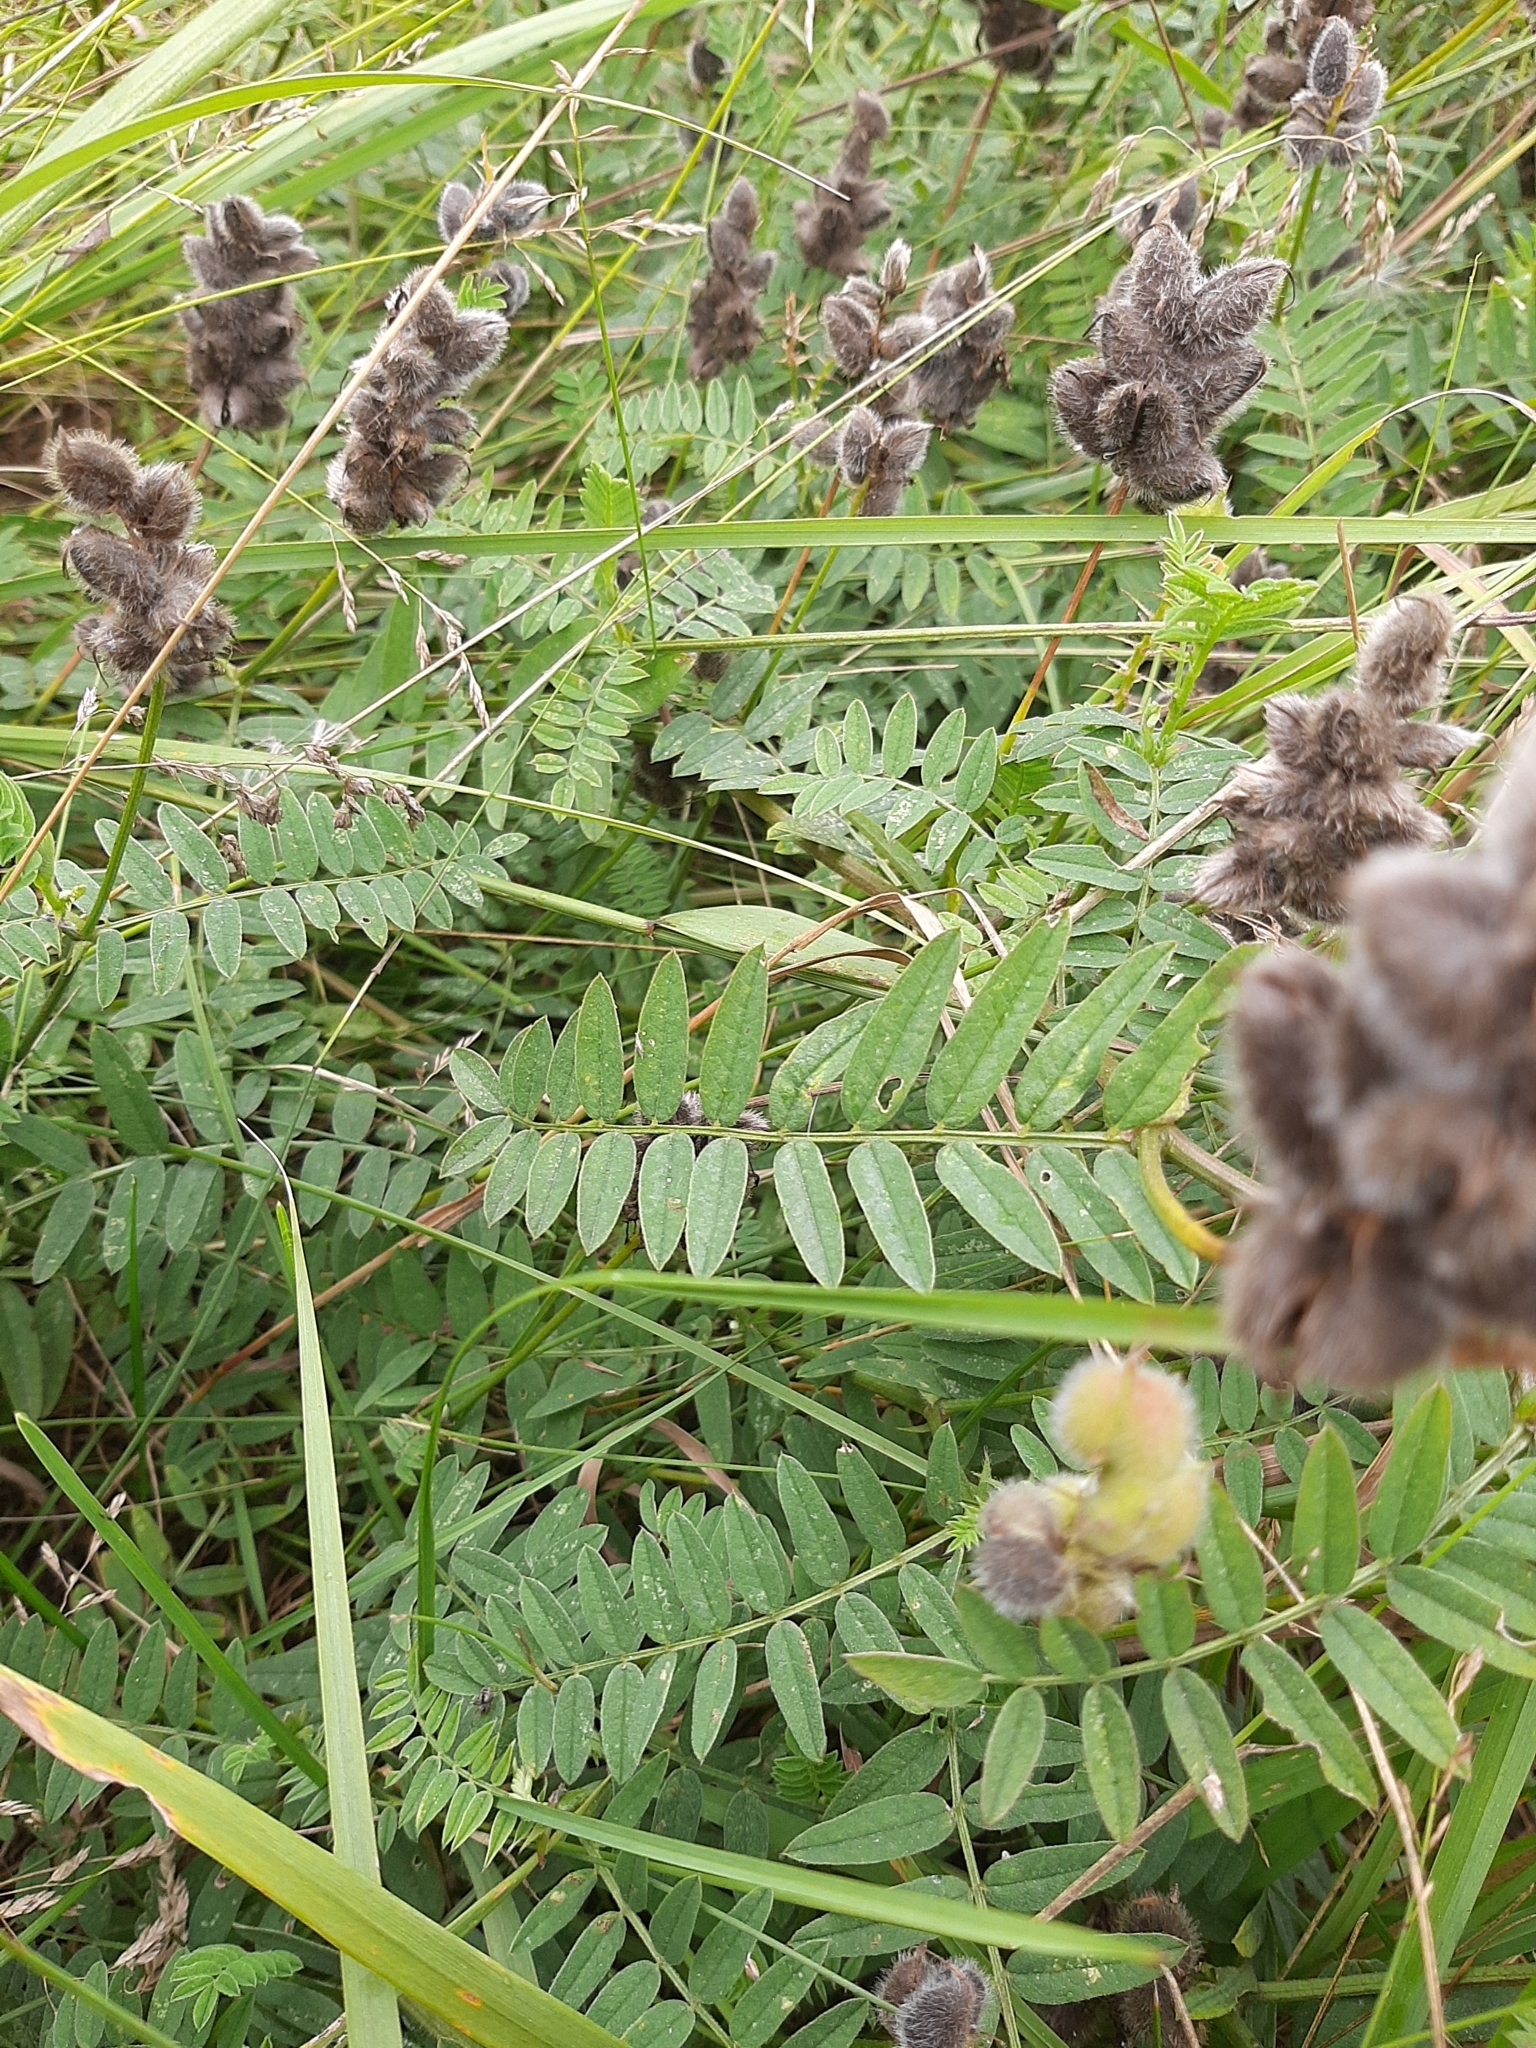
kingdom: Plantae
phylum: Tracheophyta
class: Magnoliopsida
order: Fabales
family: Fabaceae
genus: Astragalus
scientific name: Astragalus cicer
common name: Chick-pea milk-vetch
